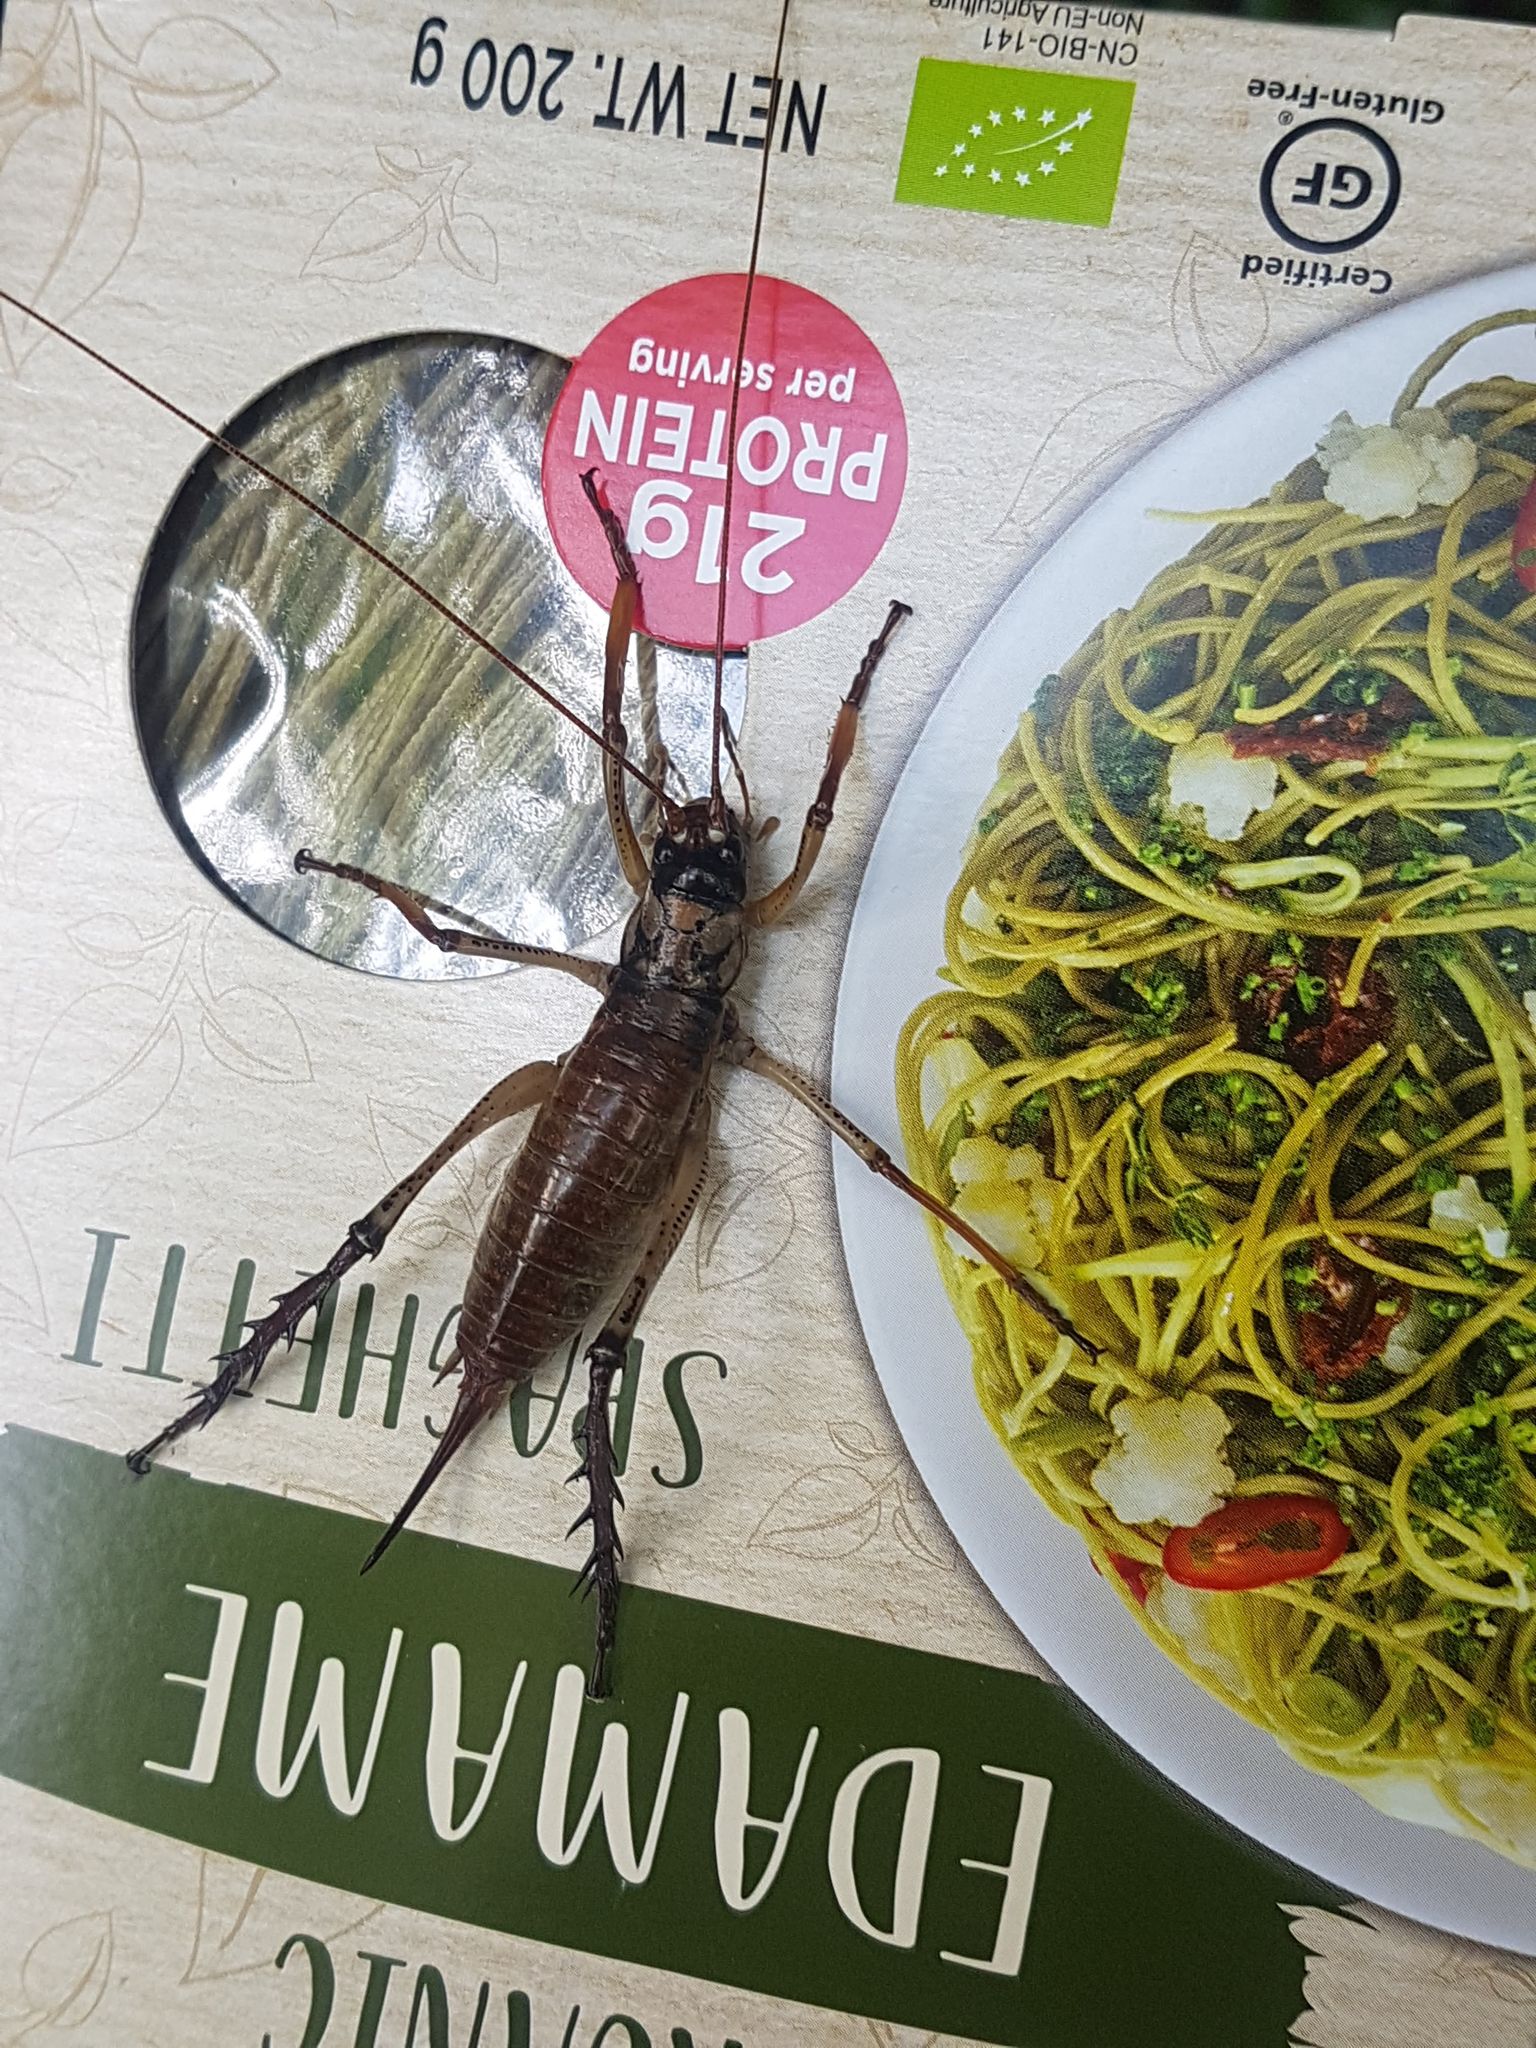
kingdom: Animalia
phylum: Arthropoda
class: Insecta
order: Orthoptera
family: Anostostomatidae
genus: Hemideina
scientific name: Hemideina thoracica
